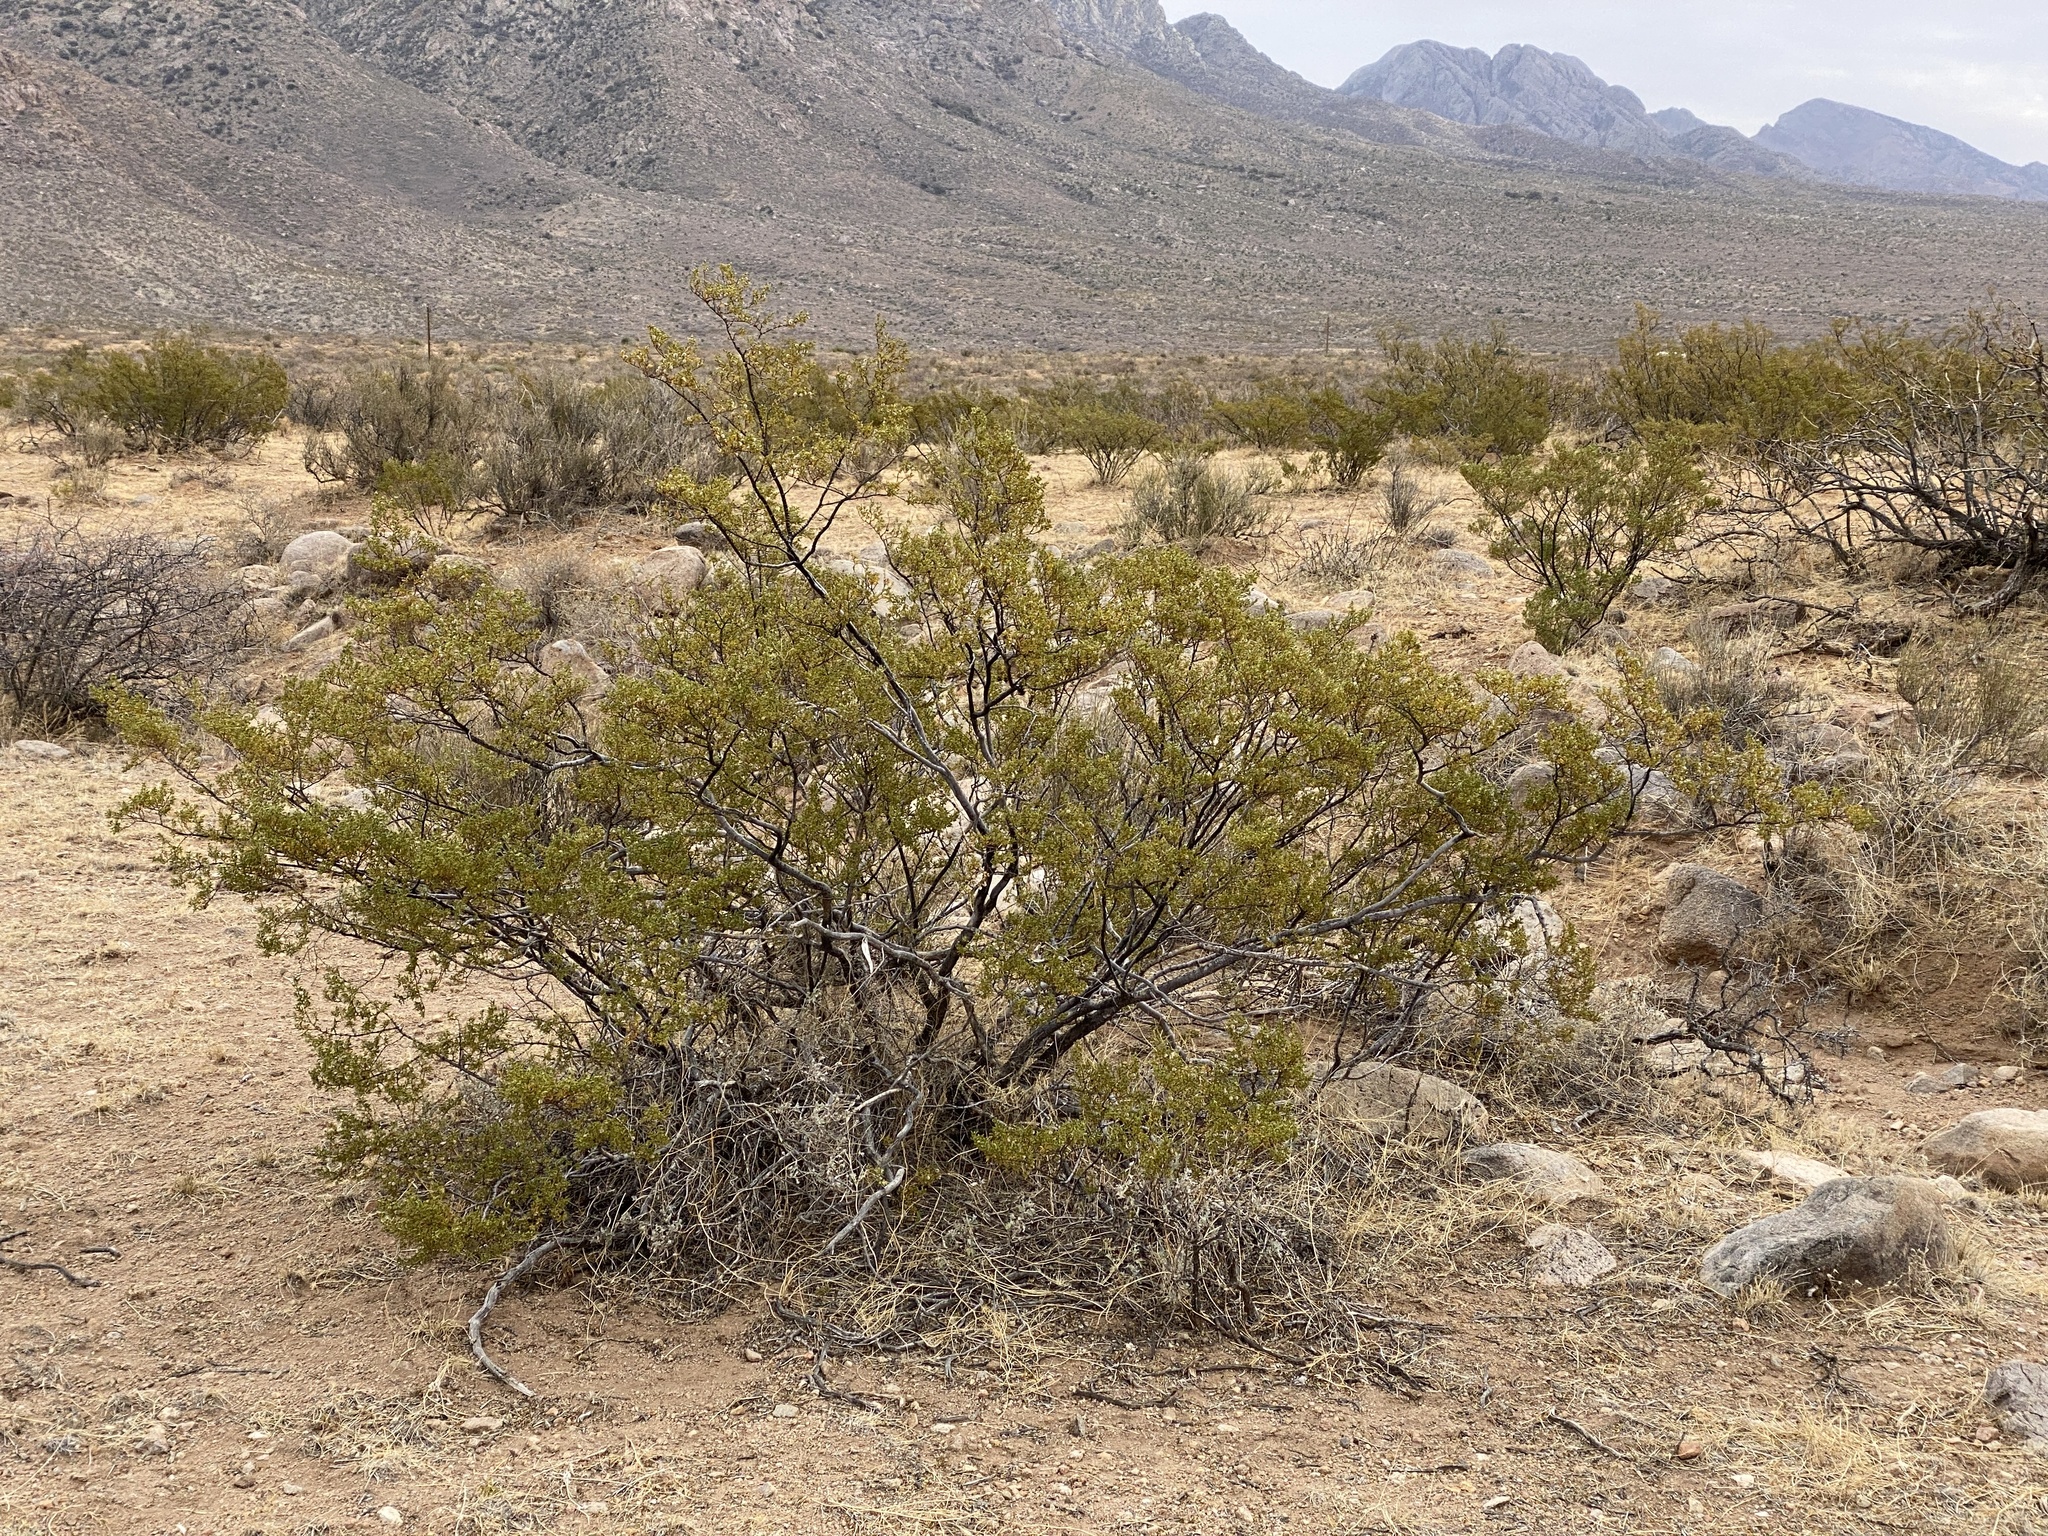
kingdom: Plantae
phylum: Tracheophyta
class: Magnoliopsida
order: Zygophyllales
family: Zygophyllaceae
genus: Larrea
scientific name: Larrea tridentata
